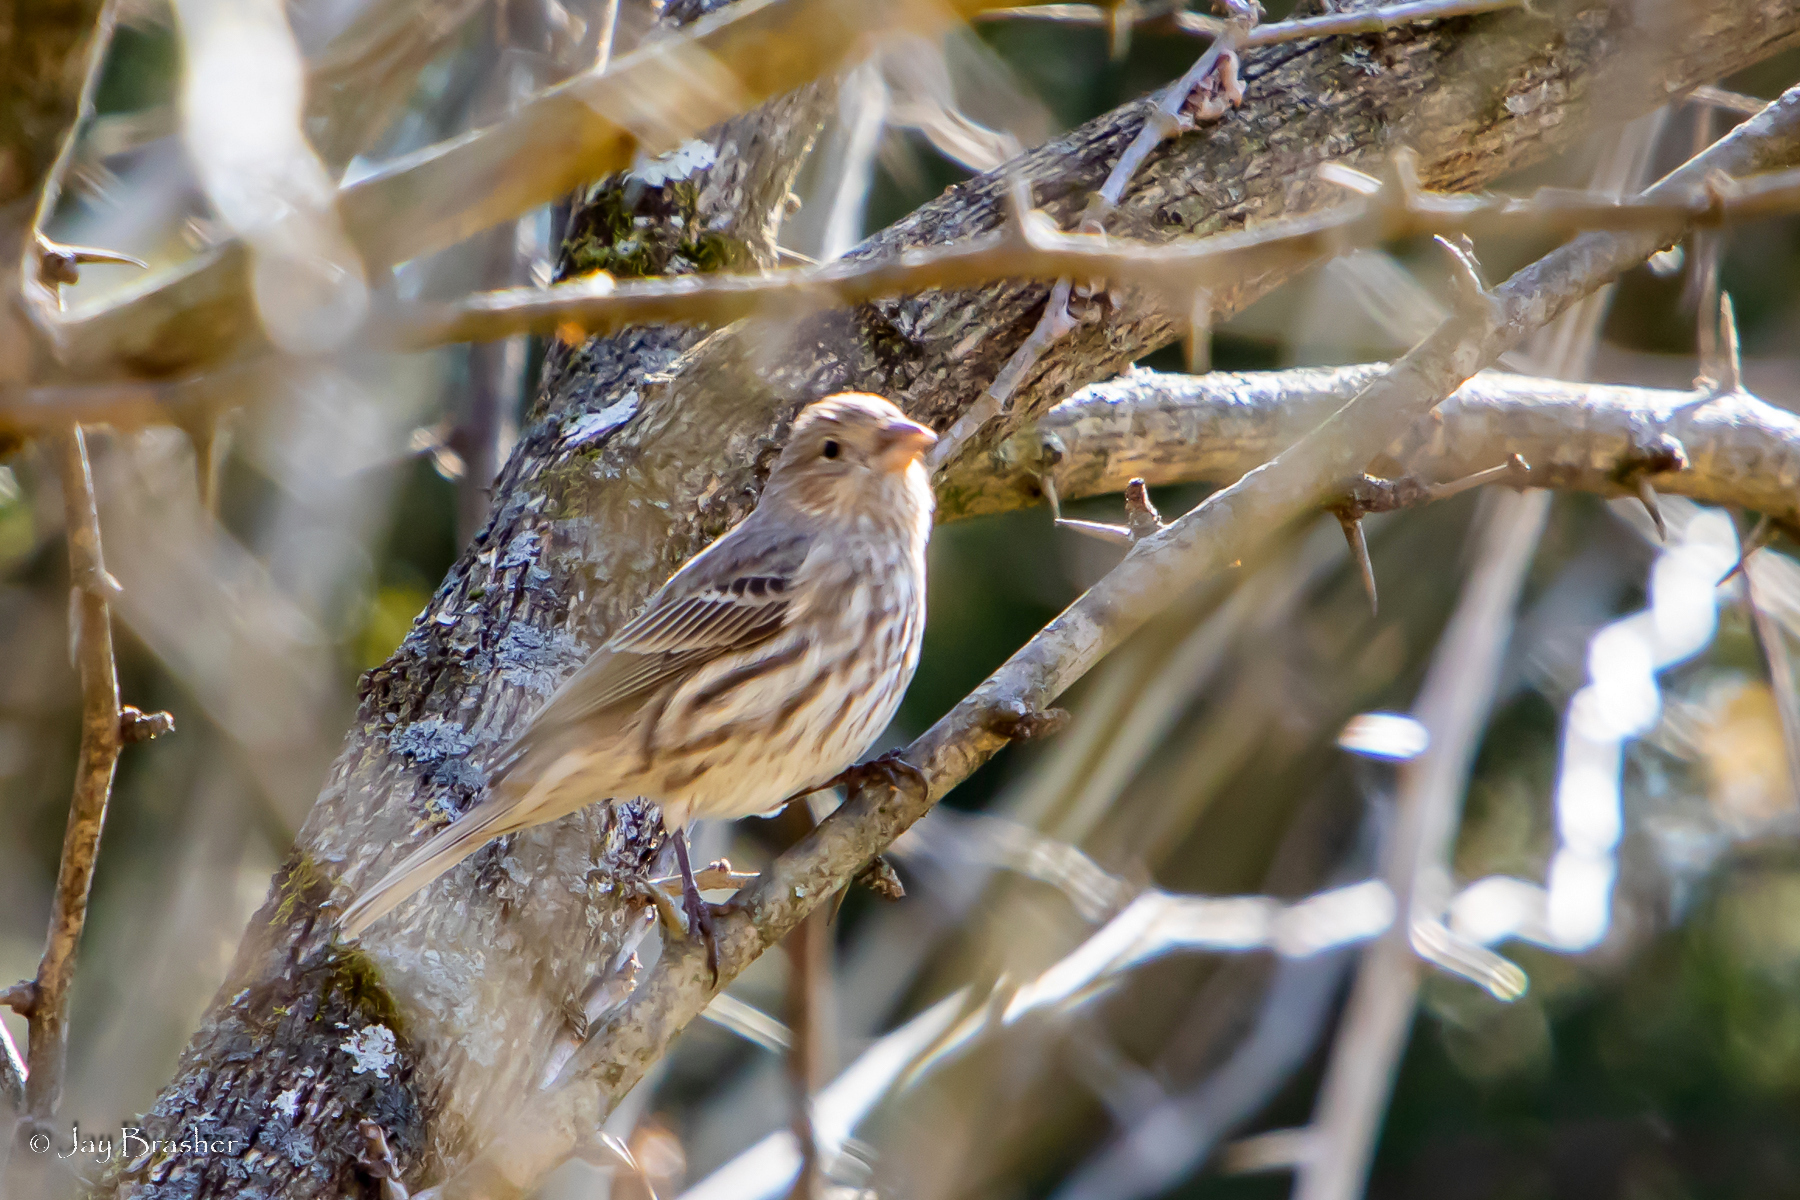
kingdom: Animalia
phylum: Chordata
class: Aves
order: Passeriformes
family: Fringillidae
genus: Haemorhous
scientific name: Haemorhous mexicanus
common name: House finch
